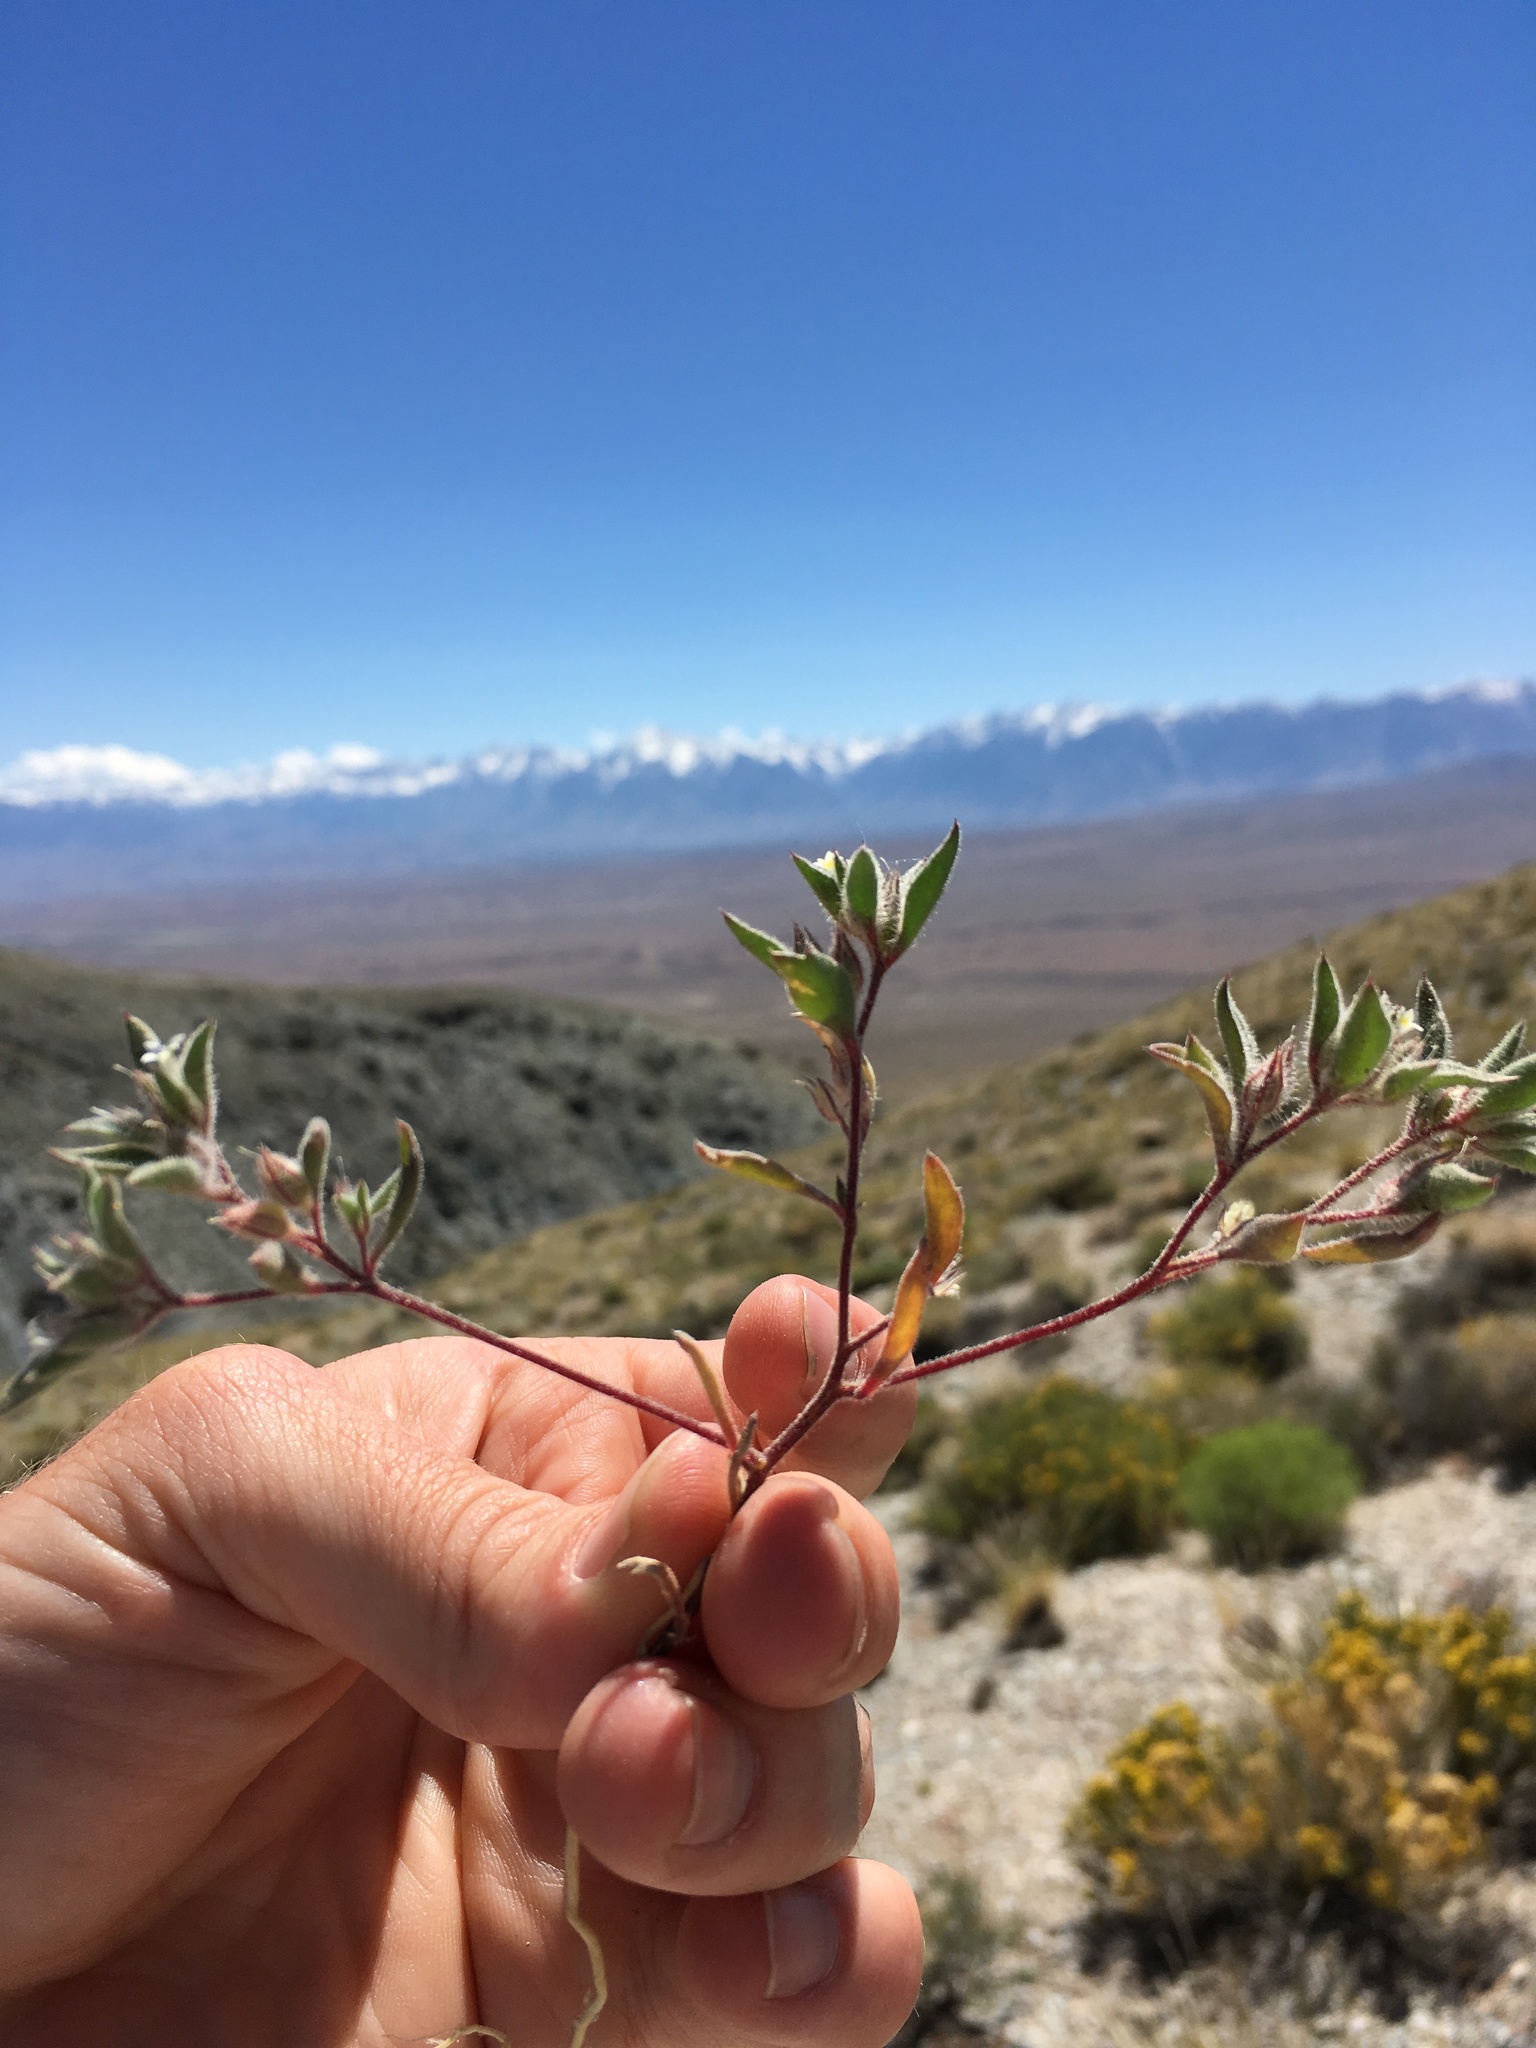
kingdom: Plantae
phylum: Tracheophyta
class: Magnoliopsida
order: Ericales
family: Polemoniaceae
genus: Loeseliastrum
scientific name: Loeseliastrum depressum
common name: Depressed ipomopsis
